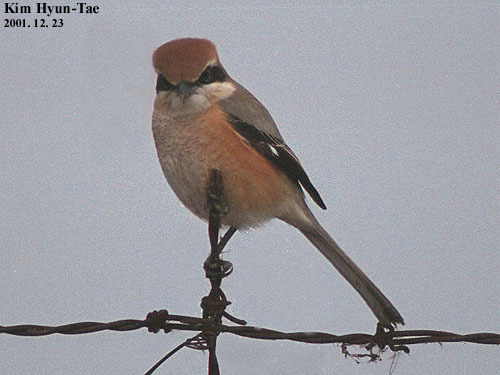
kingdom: Animalia
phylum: Chordata
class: Aves
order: Passeriformes
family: Laniidae
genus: Lanius
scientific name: Lanius bucephalus
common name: Bull-headed shrike
